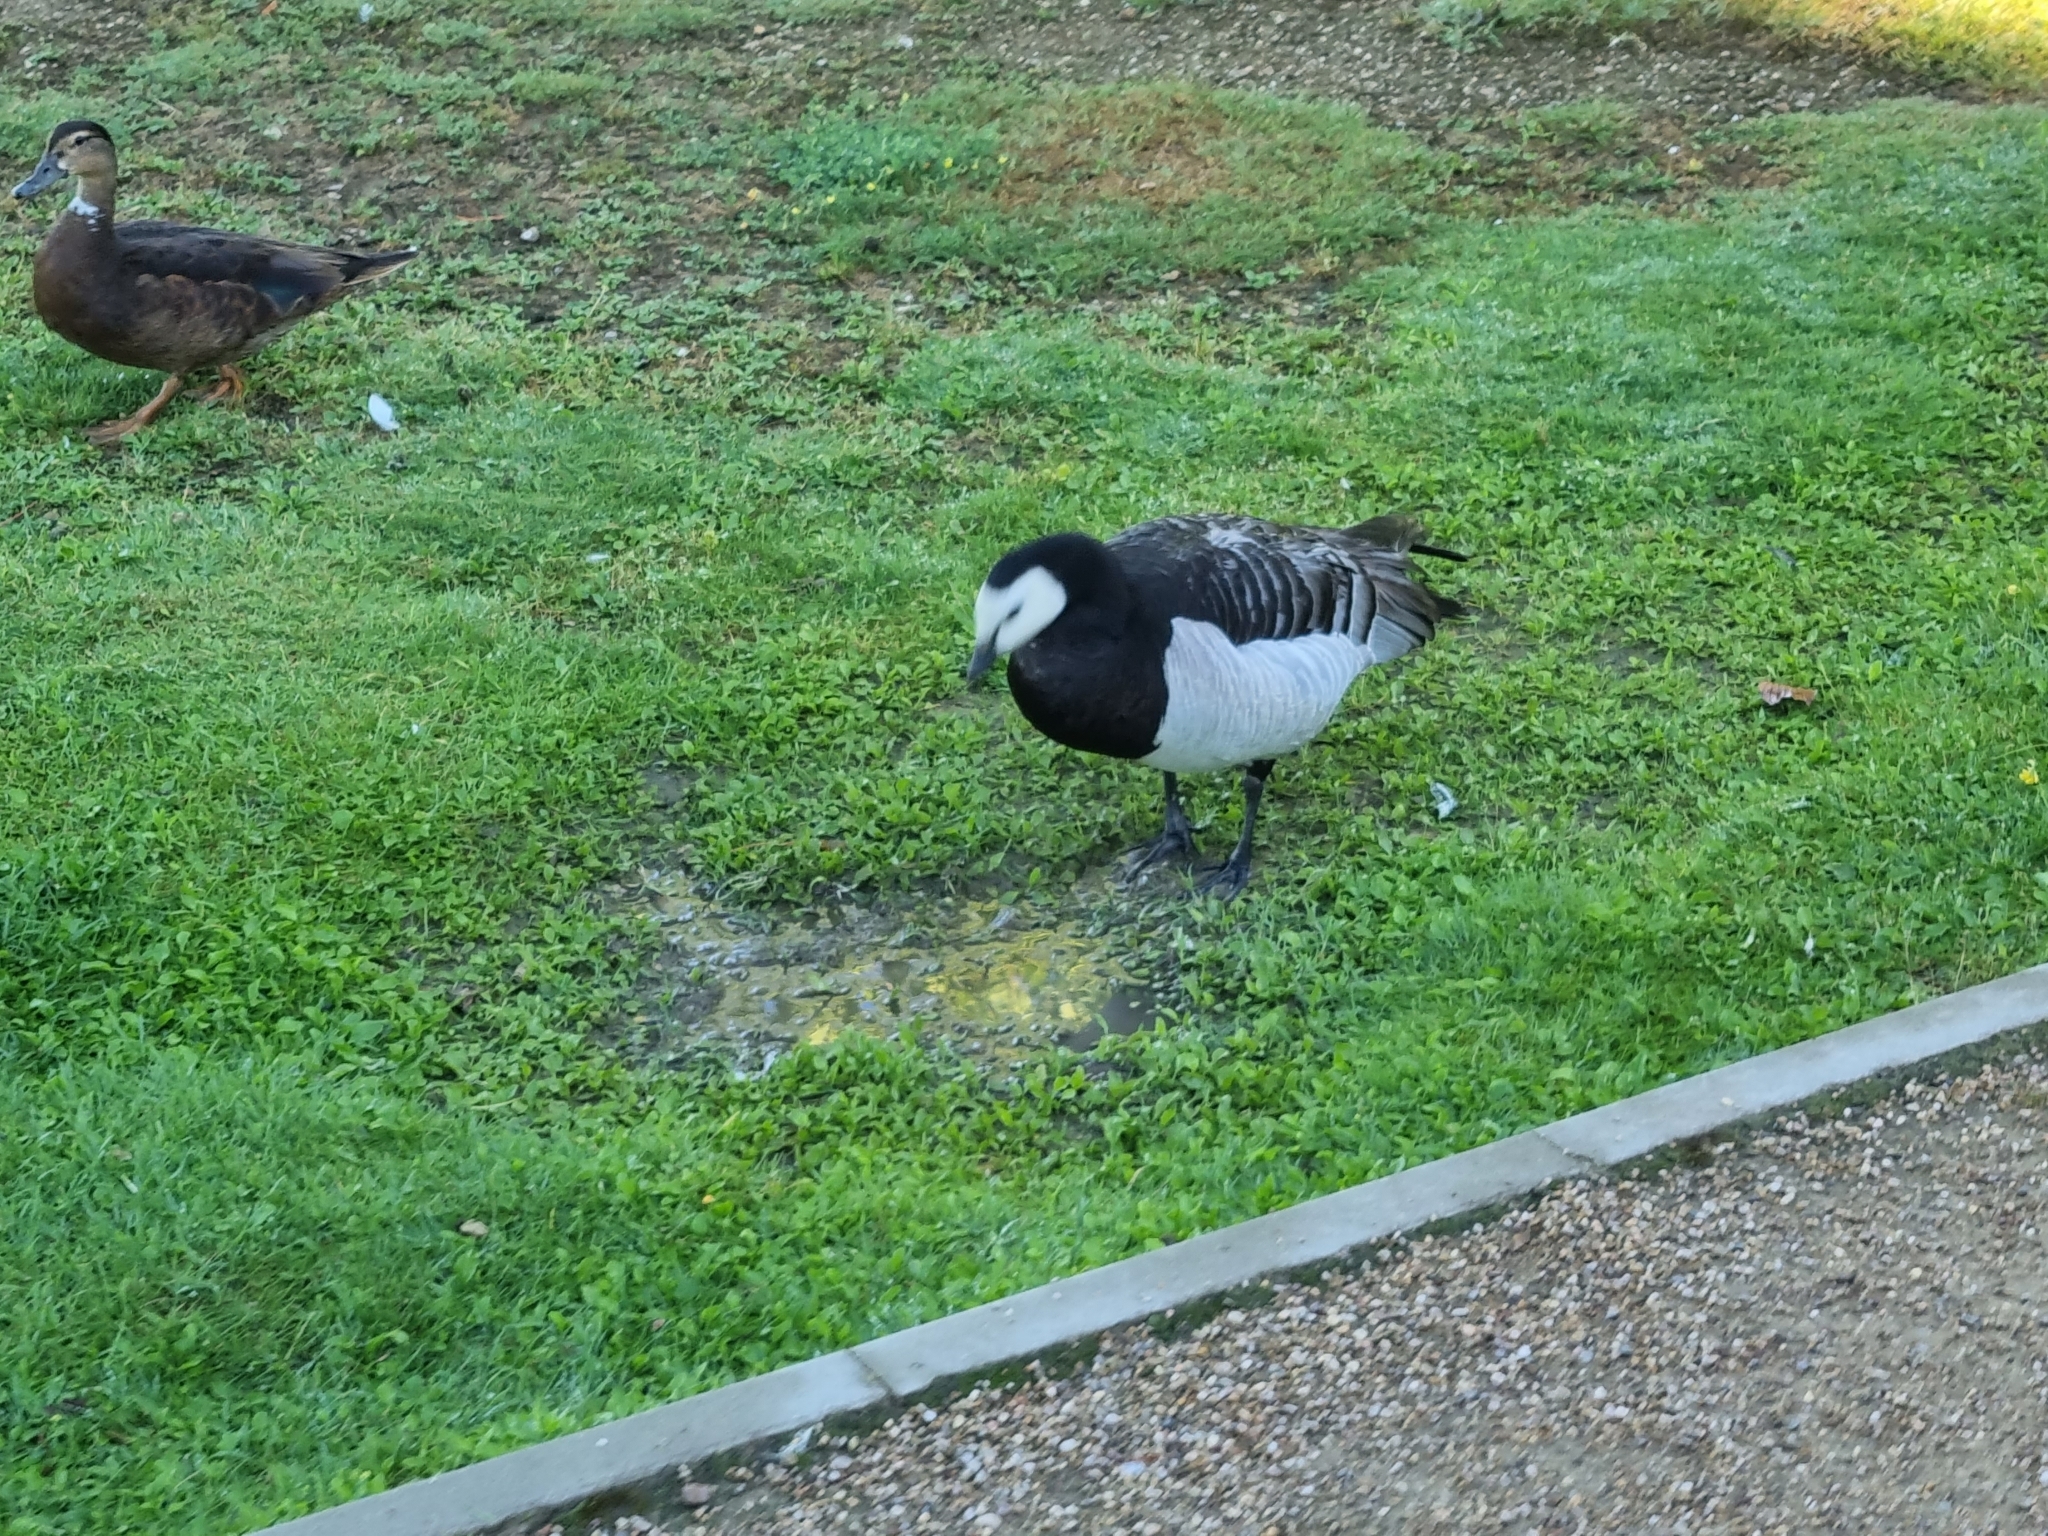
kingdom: Animalia
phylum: Chordata
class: Aves
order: Anseriformes
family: Anatidae
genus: Branta
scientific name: Branta leucopsis
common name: Barnacle goose
